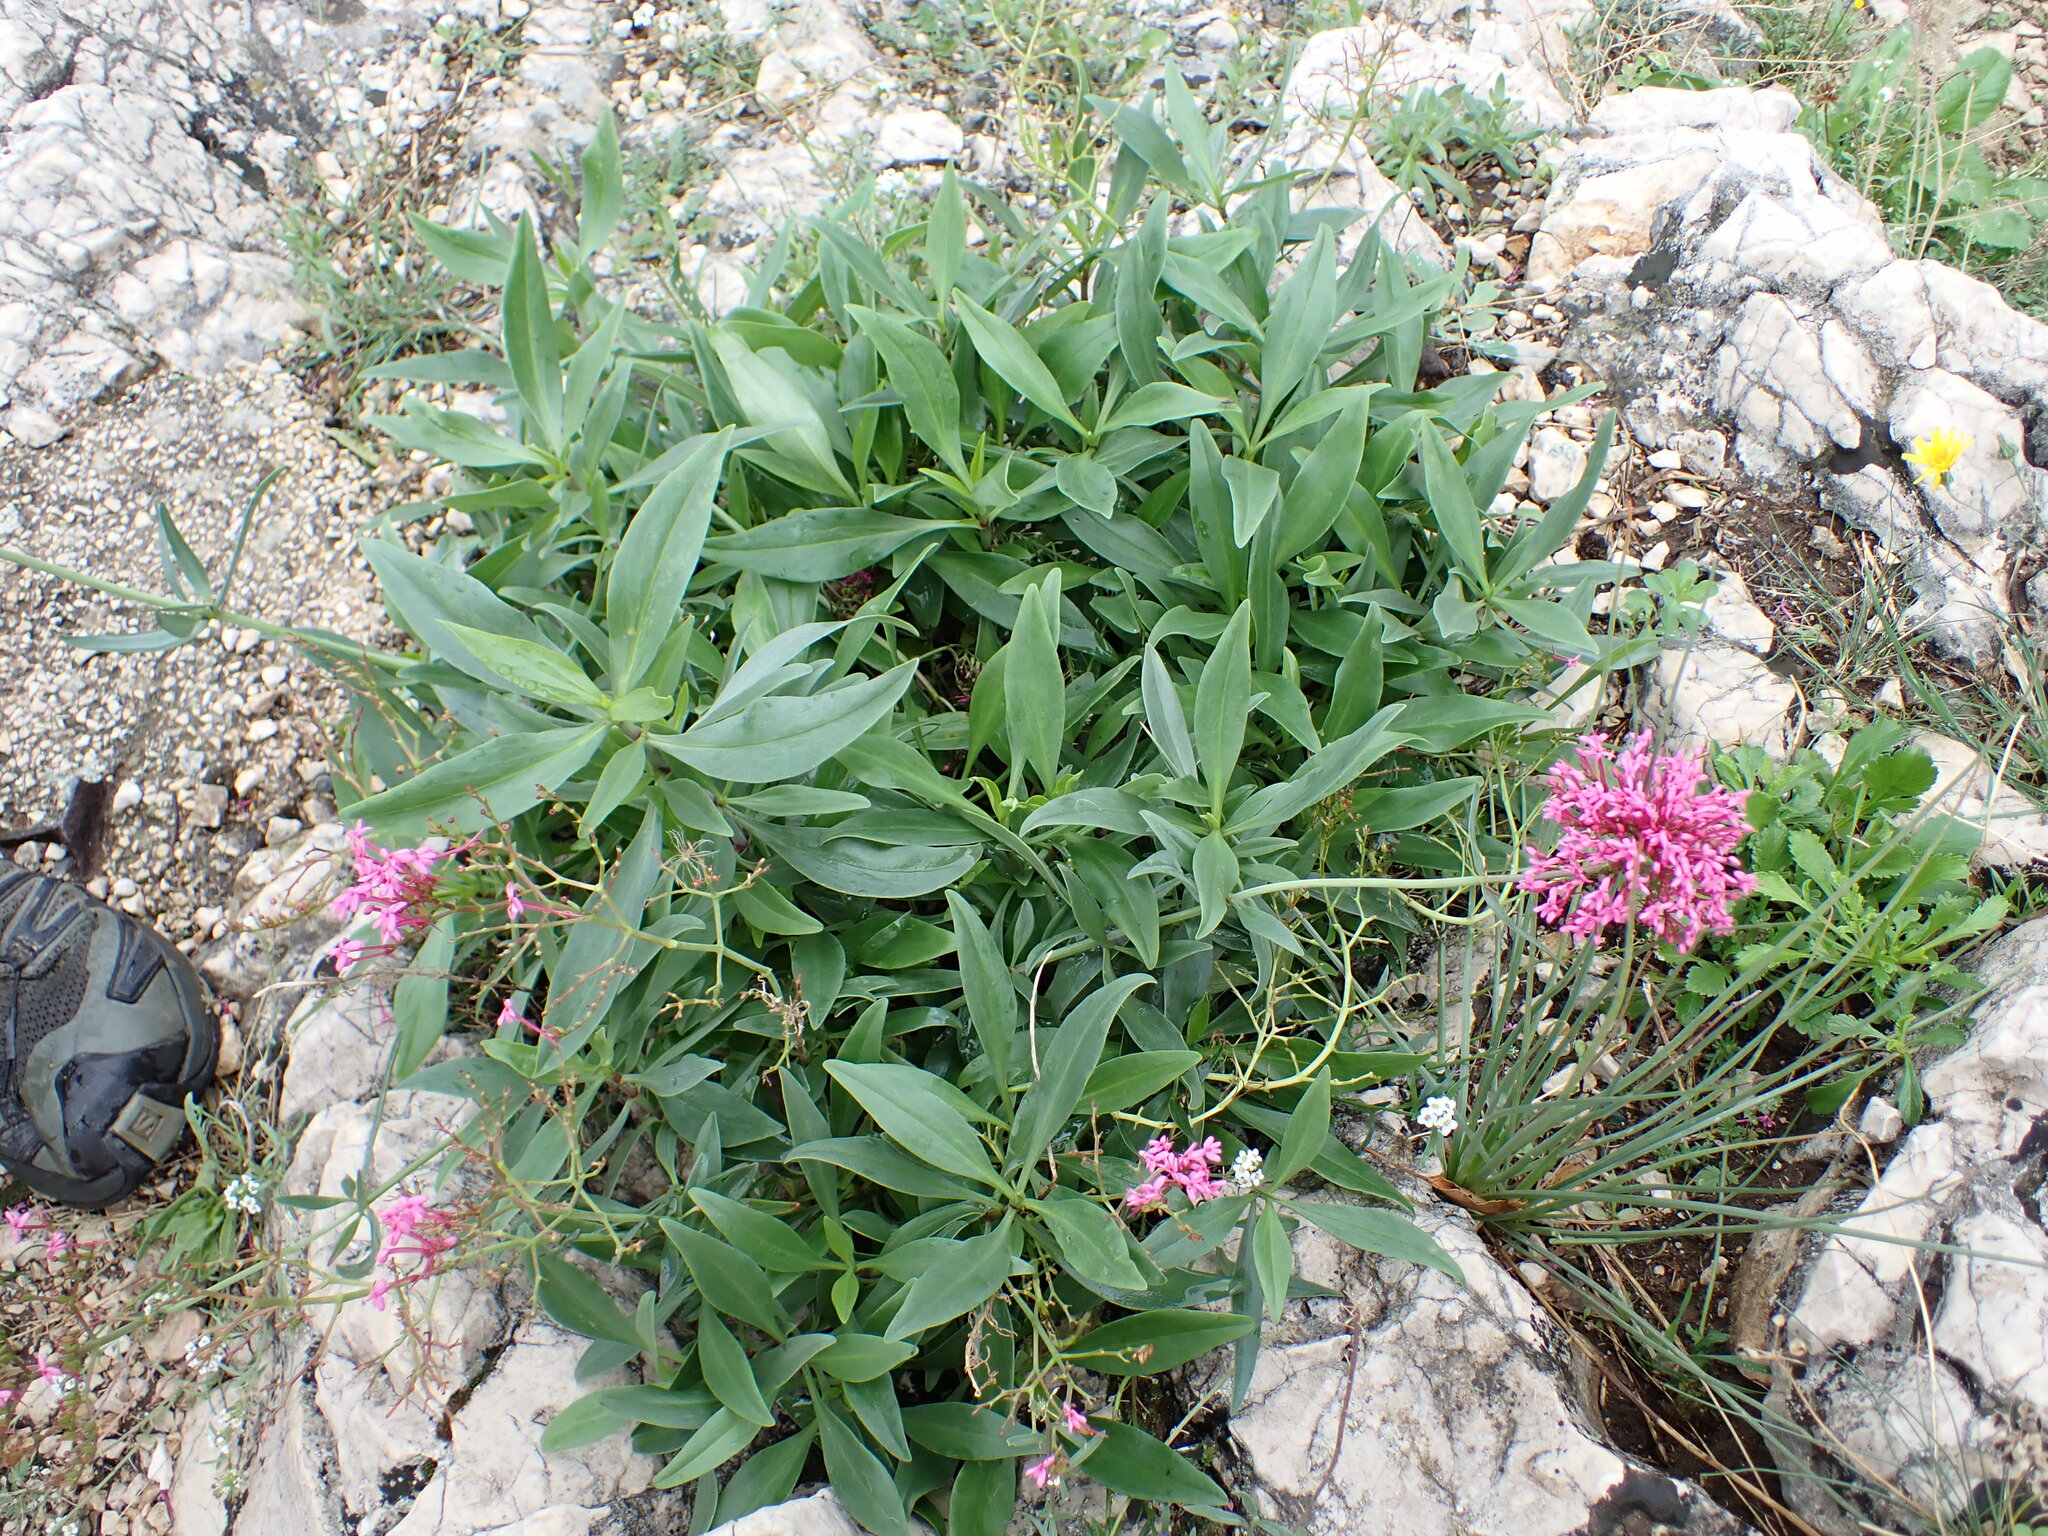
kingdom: Plantae
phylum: Tracheophyta
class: Magnoliopsida
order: Dipsacales
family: Caprifoliaceae
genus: Centranthus
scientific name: Centranthus ruber
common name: Red valerian
